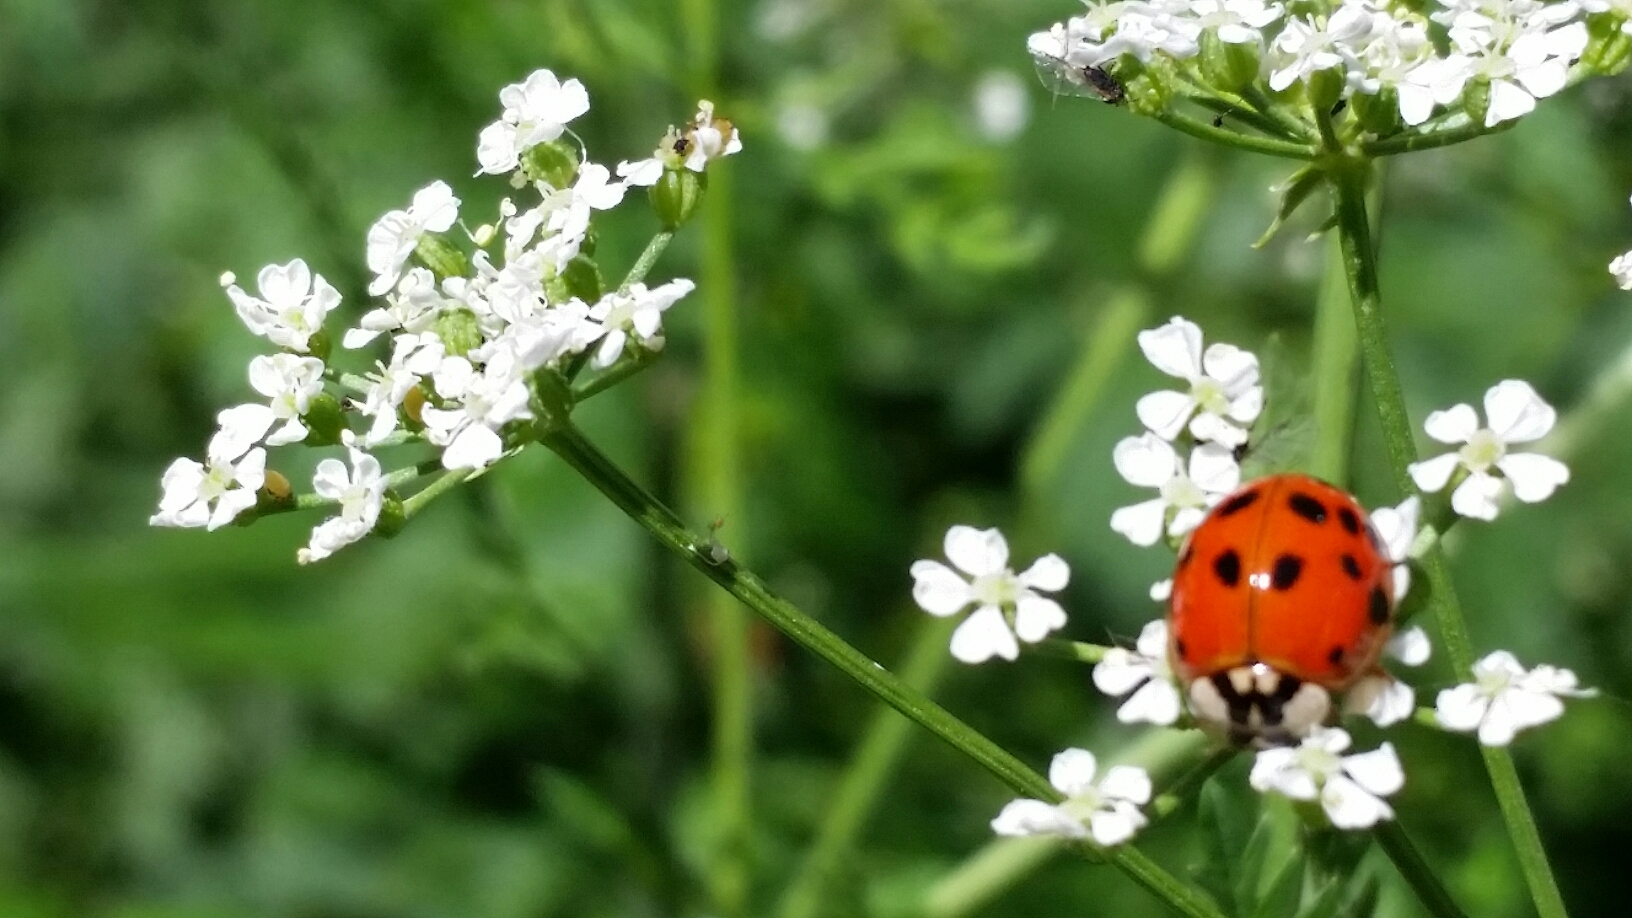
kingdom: Animalia
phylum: Arthropoda
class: Insecta
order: Coleoptera
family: Coccinellidae
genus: Harmonia
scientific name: Harmonia axyridis
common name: Harlequin ladybird
